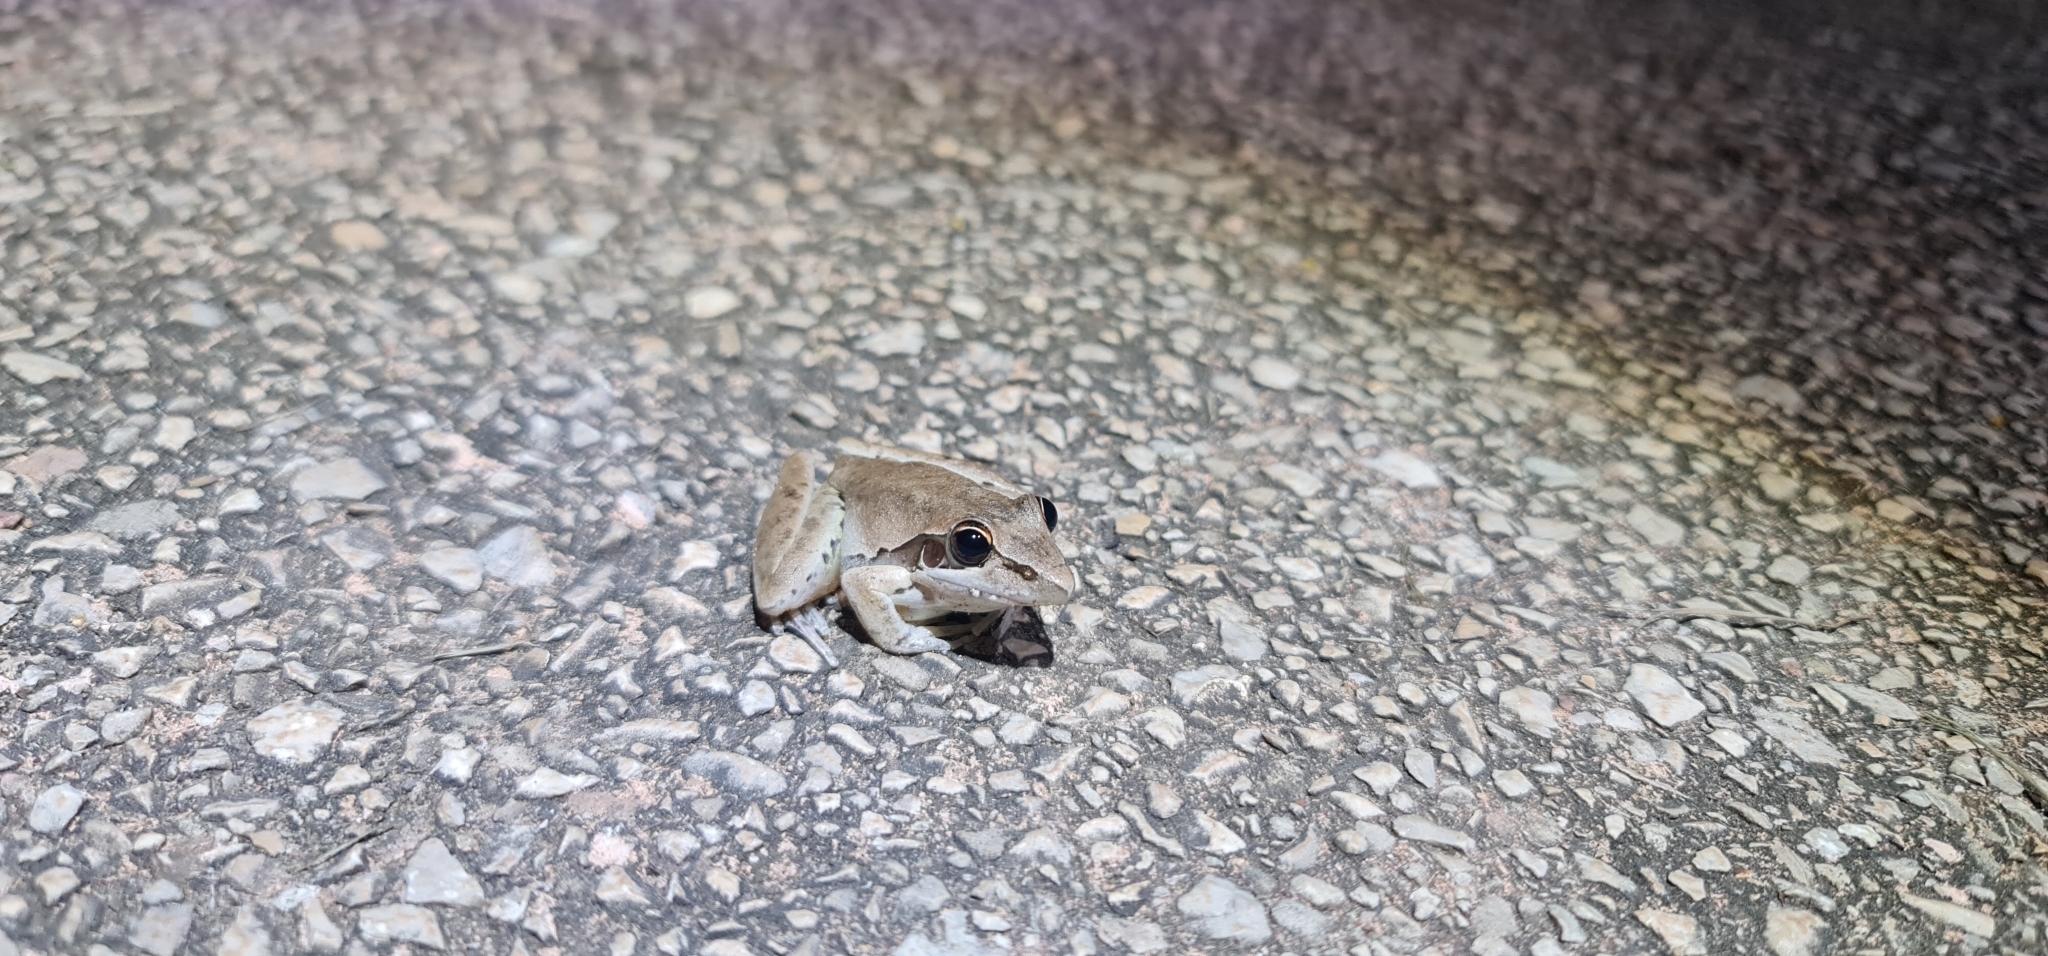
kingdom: Animalia
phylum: Chordata
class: Amphibia
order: Anura
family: Pelodryadidae
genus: Litoria
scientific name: Litoria watjulumensis
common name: Wotjulum frog
